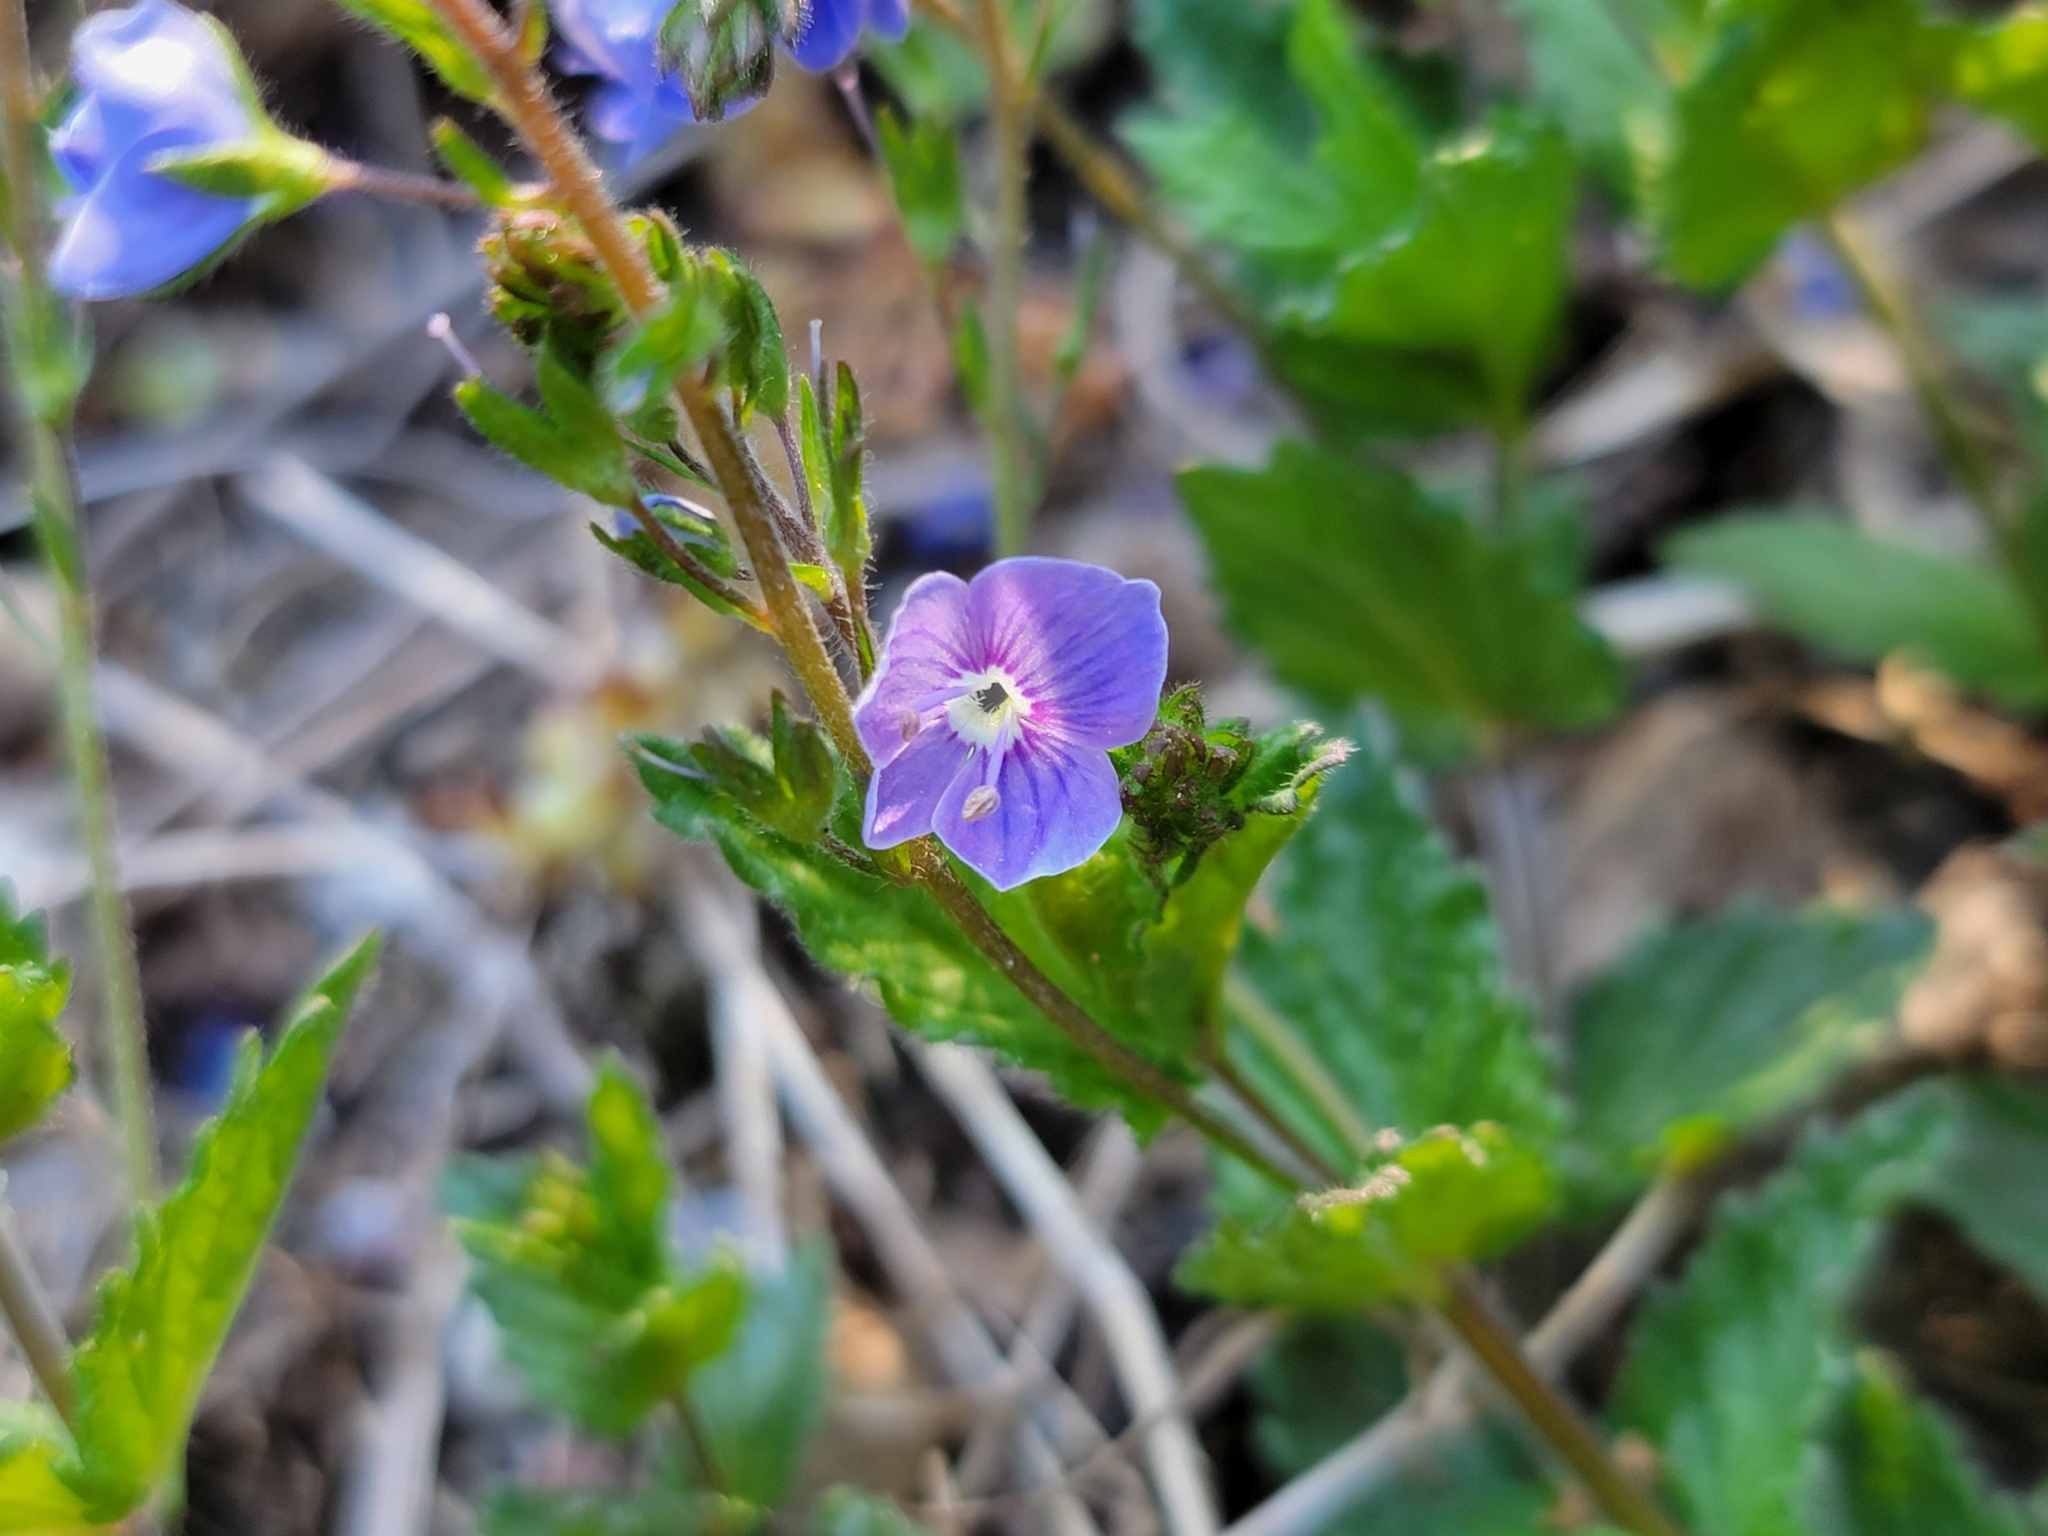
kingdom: Plantae
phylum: Tracheophyta
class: Magnoliopsida
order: Lamiales
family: Plantaginaceae
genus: Veronica
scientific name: Veronica chamaedrys
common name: Germander speedwell
